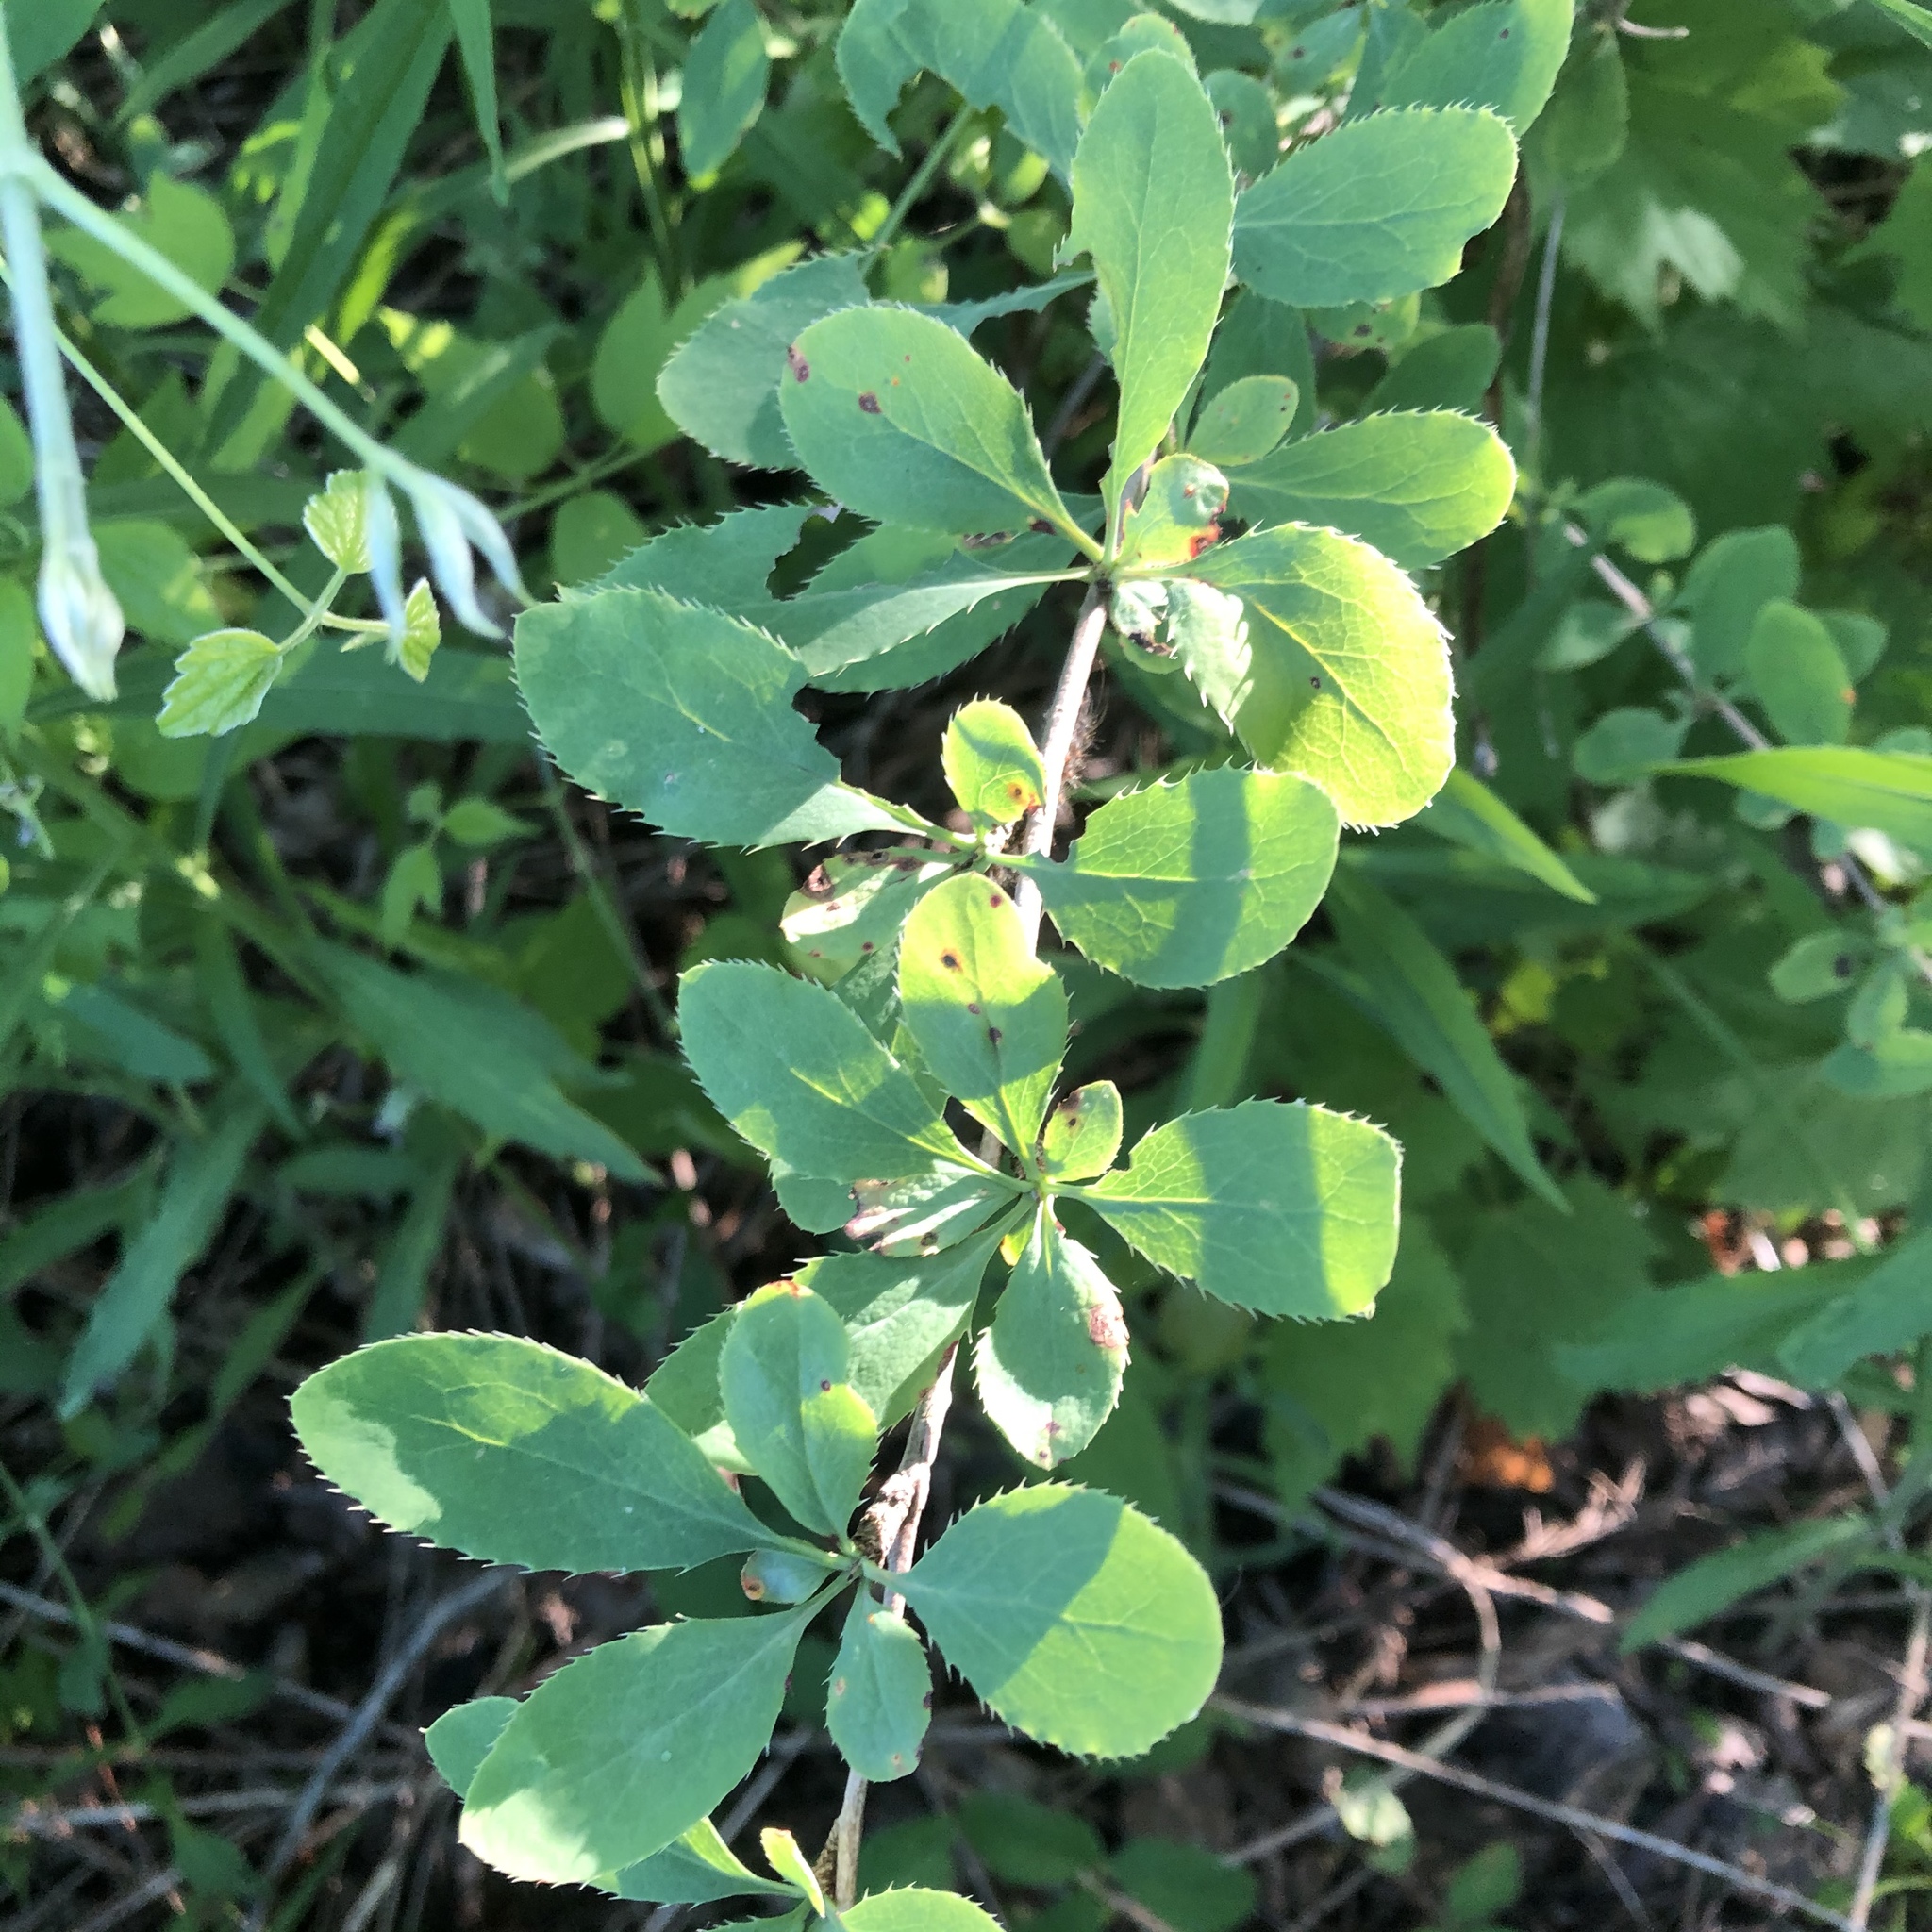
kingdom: Plantae
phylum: Tracheophyta
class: Magnoliopsida
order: Ranunculales
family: Berberidaceae
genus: Berberis
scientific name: Berberis vulgaris
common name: Barberry
